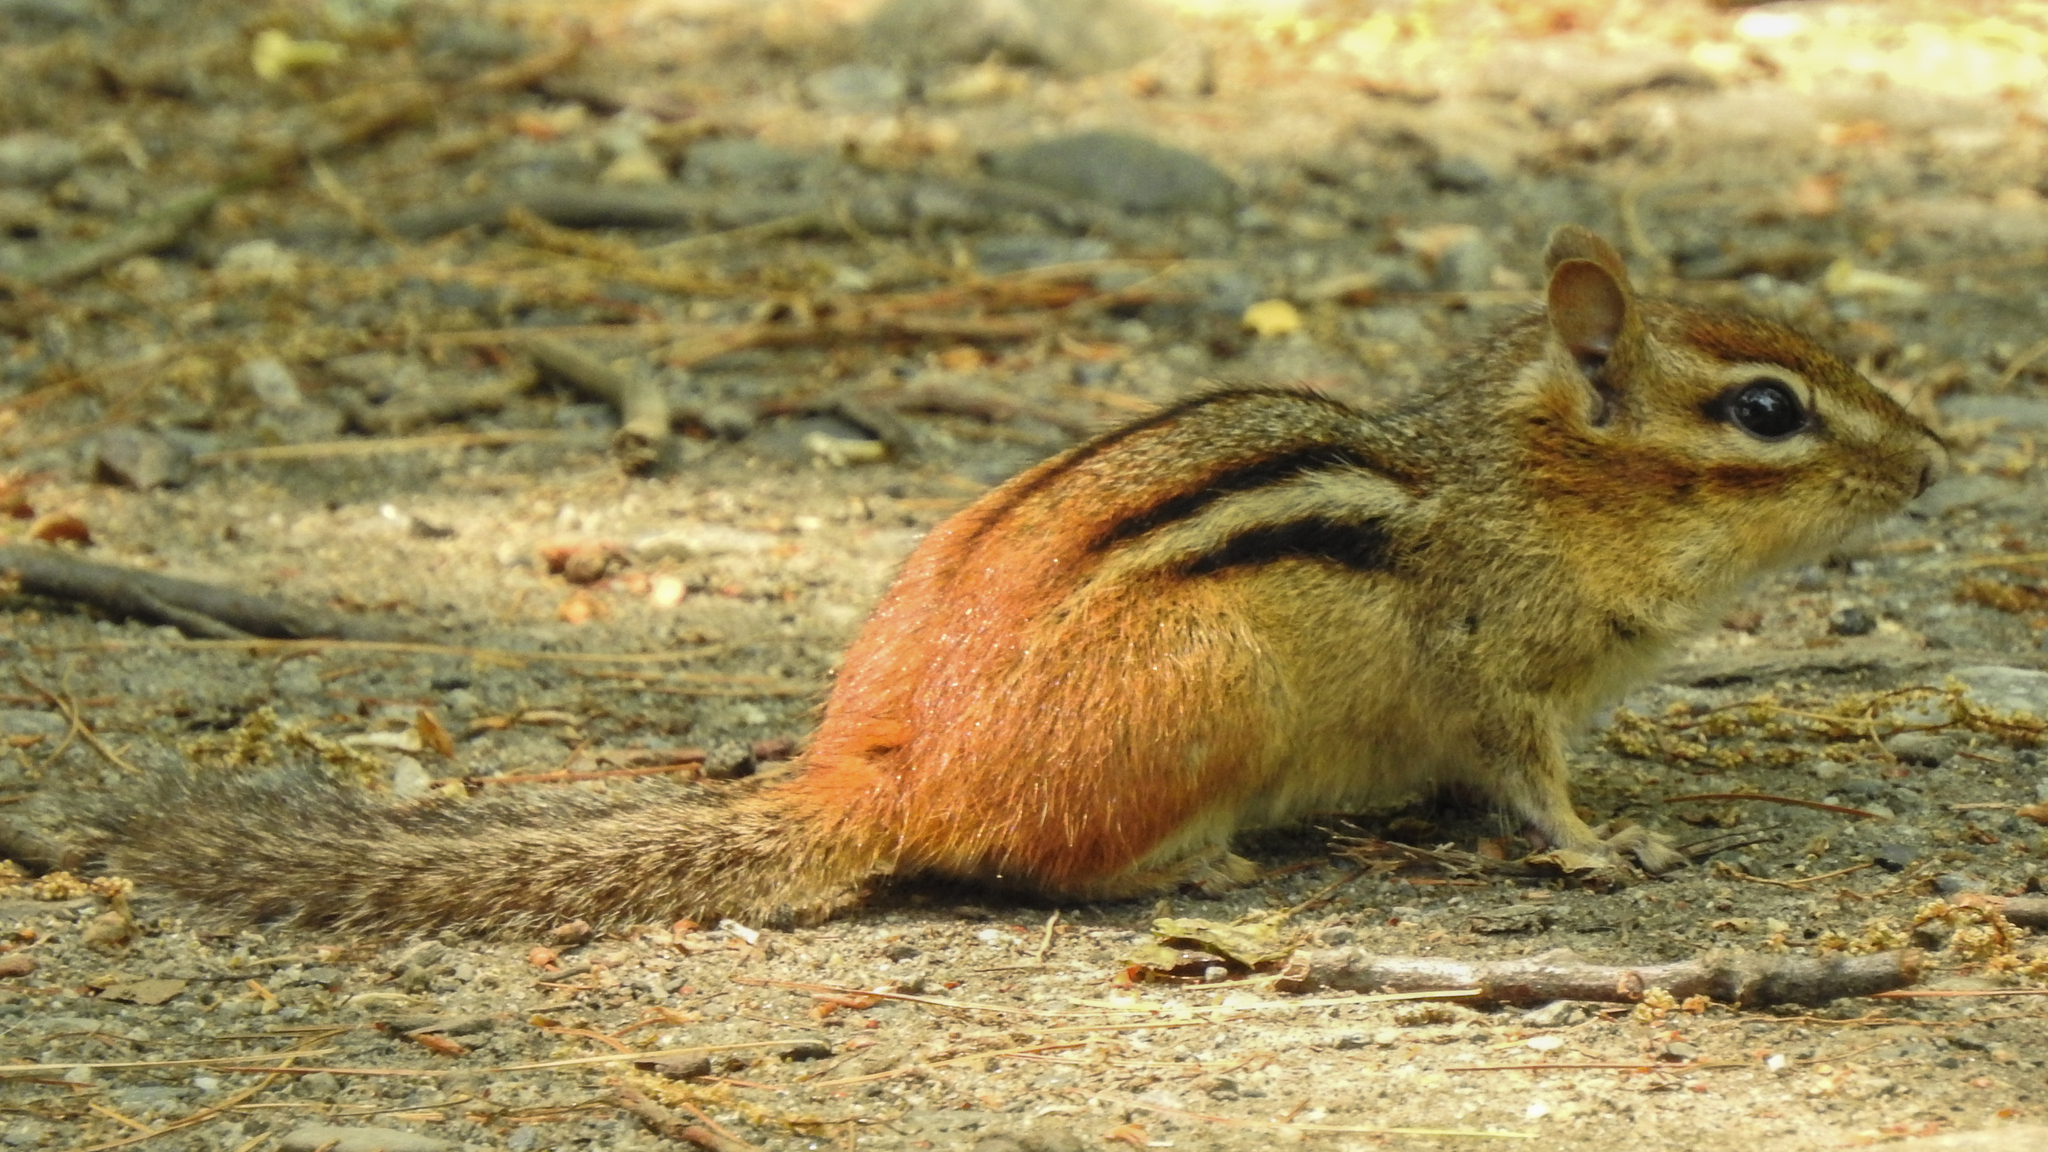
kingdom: Animalia
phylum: Chordata
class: Mammalia
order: Rodentia
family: Sciuridae
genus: Tamias
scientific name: Tamias striatus
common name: Eastern chipmunk
